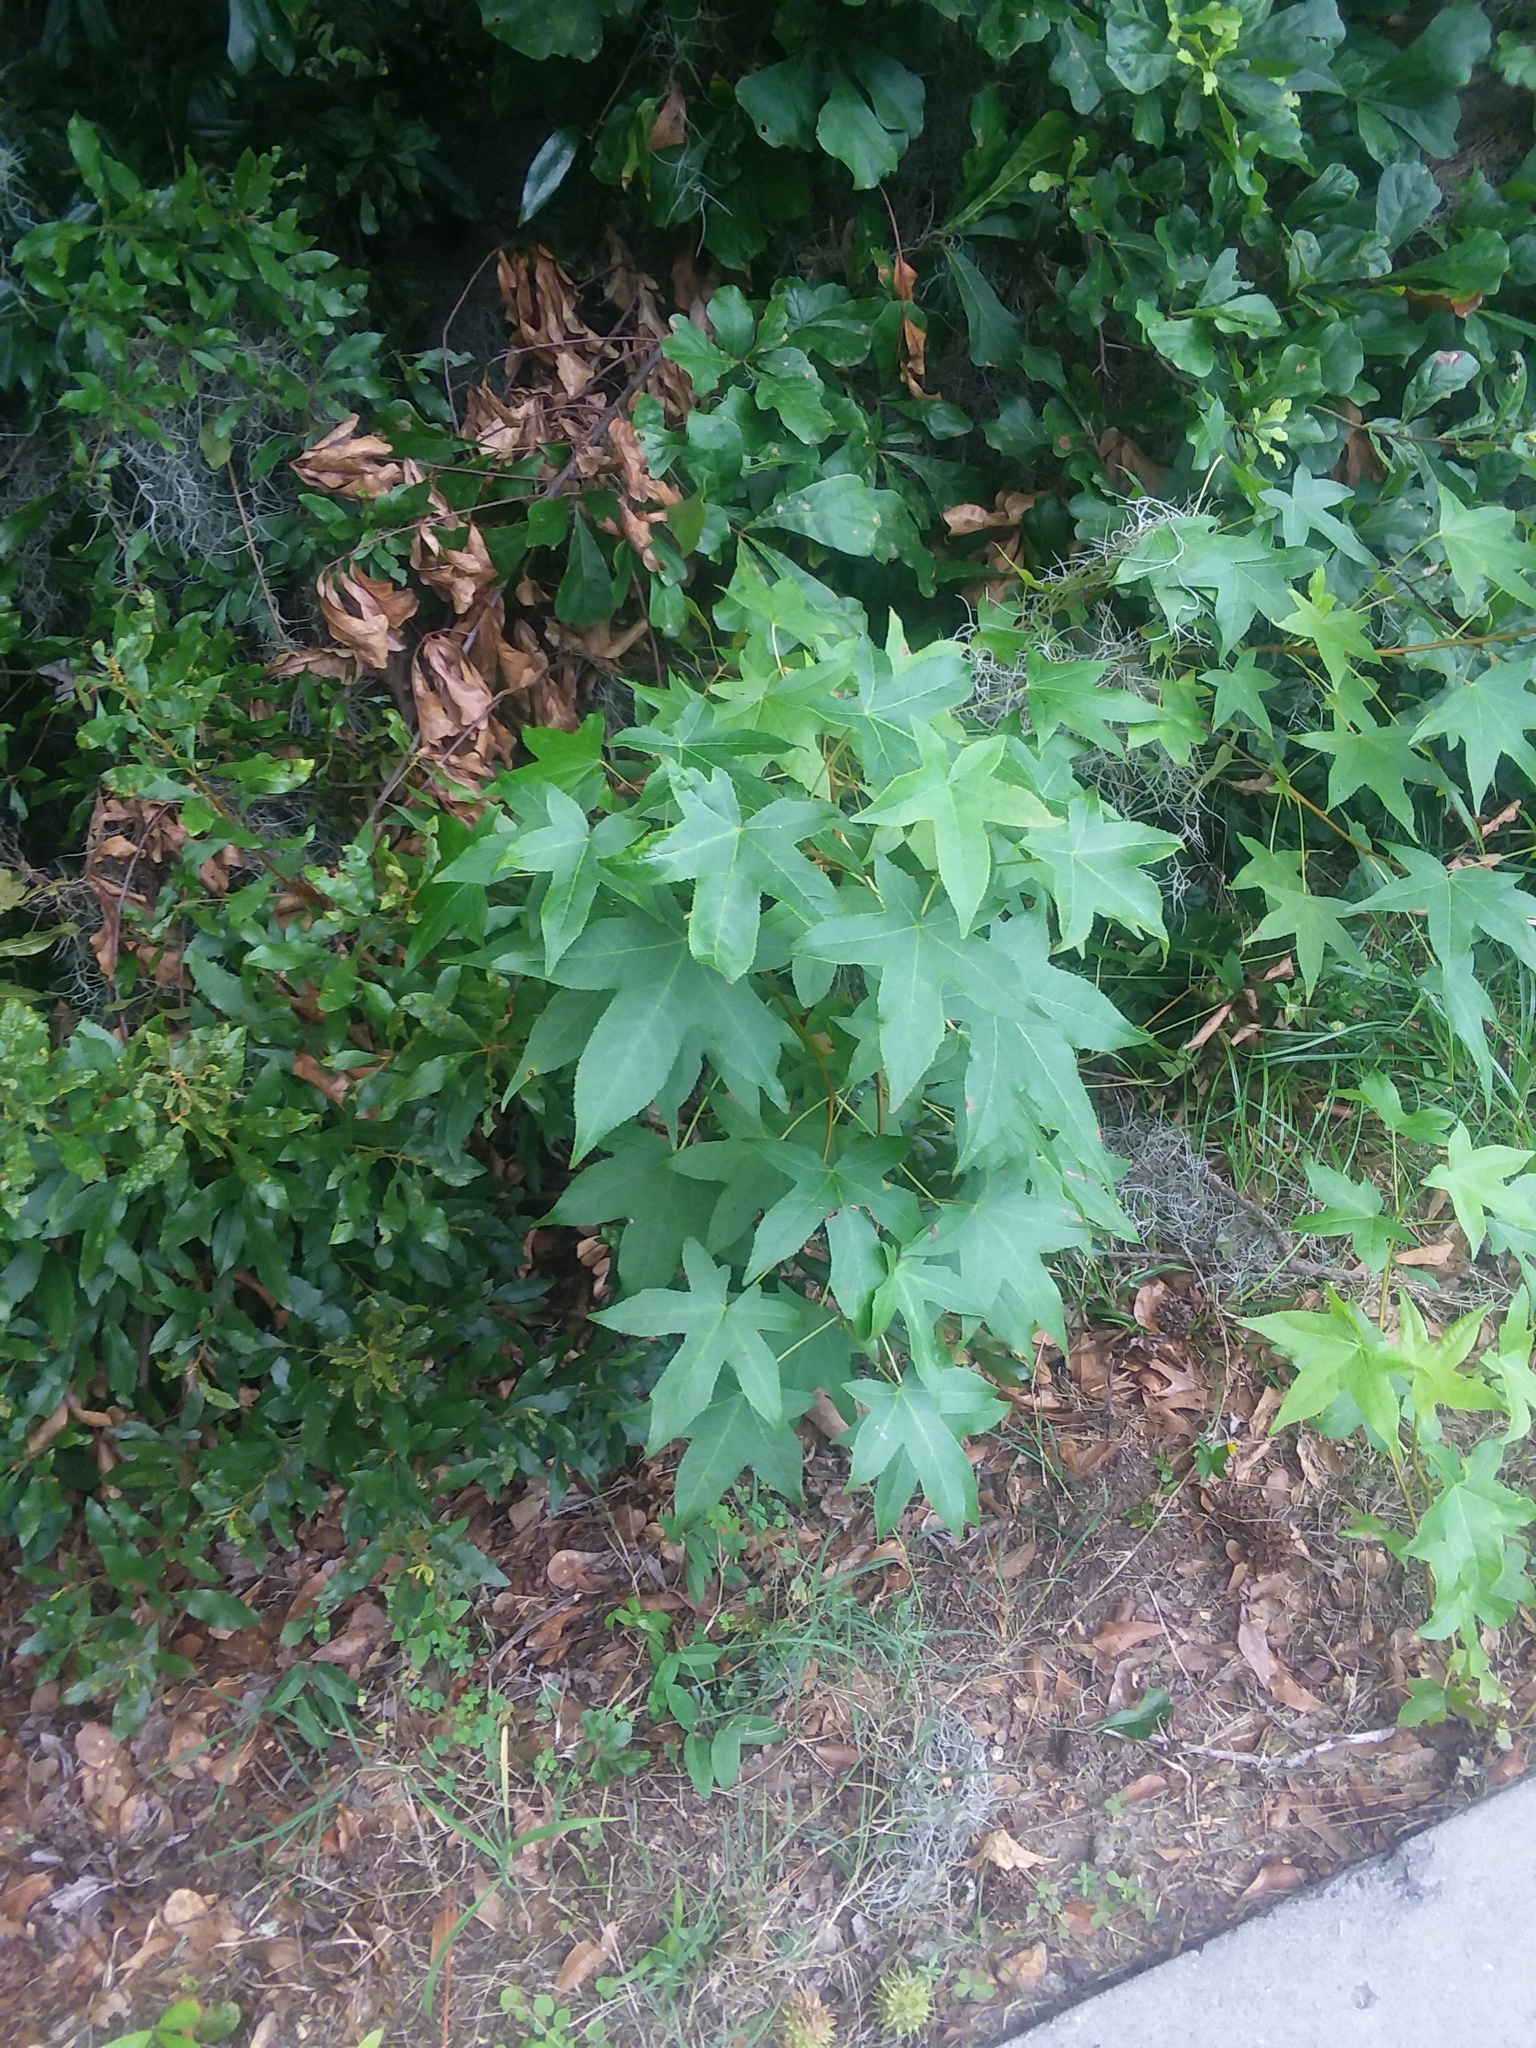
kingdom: Plantae
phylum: Tracheophyta
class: Magnoliopsida
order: Saxifragales
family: Altingiaceae
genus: Liquidambar
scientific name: Liquidambar styraciflua
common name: Sweet gum
